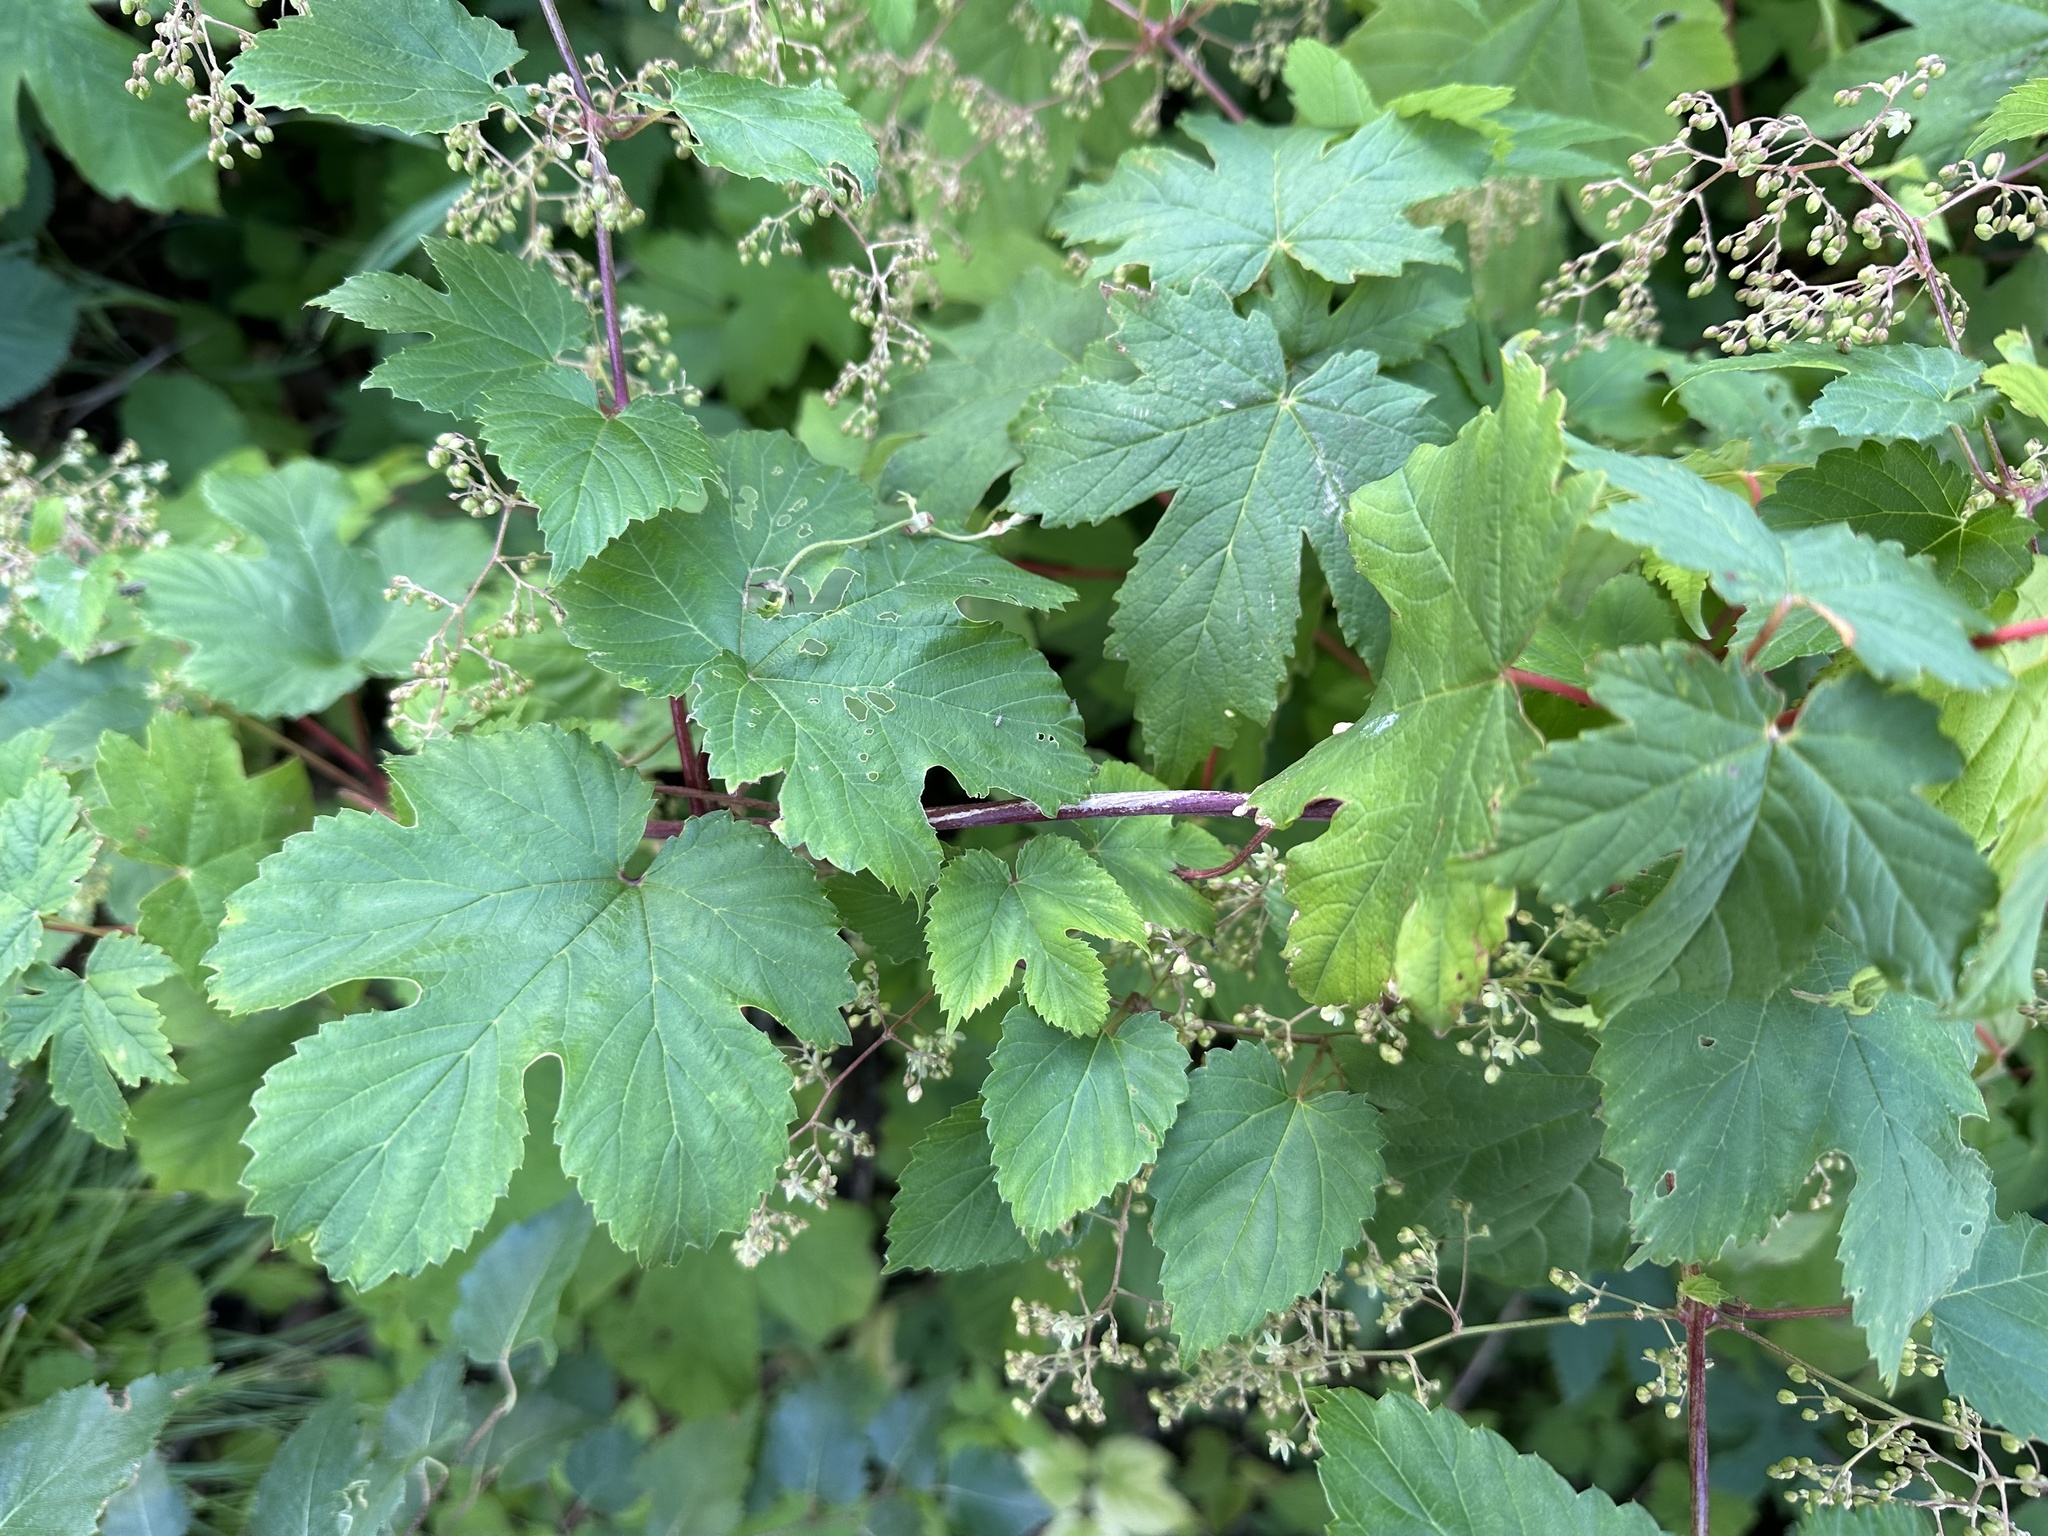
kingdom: Plantae
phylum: Tracheophyta
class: Magnoliopsida
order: Rosales
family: Cannabaceae
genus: Humulus
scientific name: Humulus lupulus
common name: Hop
